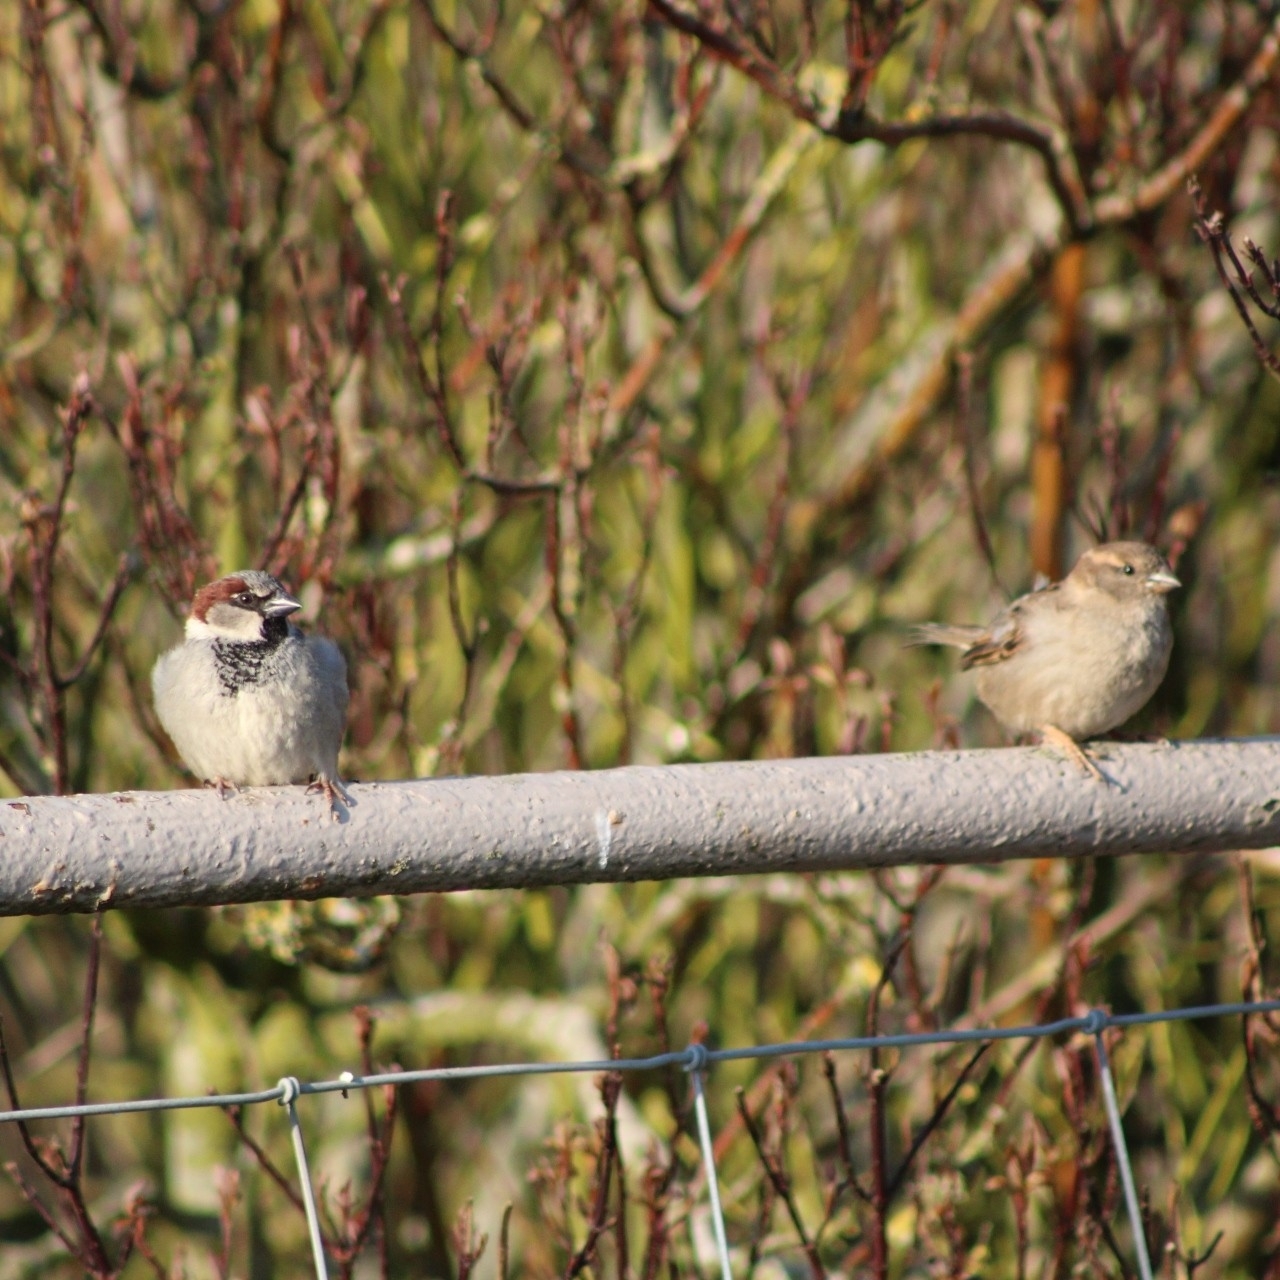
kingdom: Animalia
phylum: Chordata
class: Aves
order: Passeriformes
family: Passeridae
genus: Passer
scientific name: Passer domesticus
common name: House sparrow
